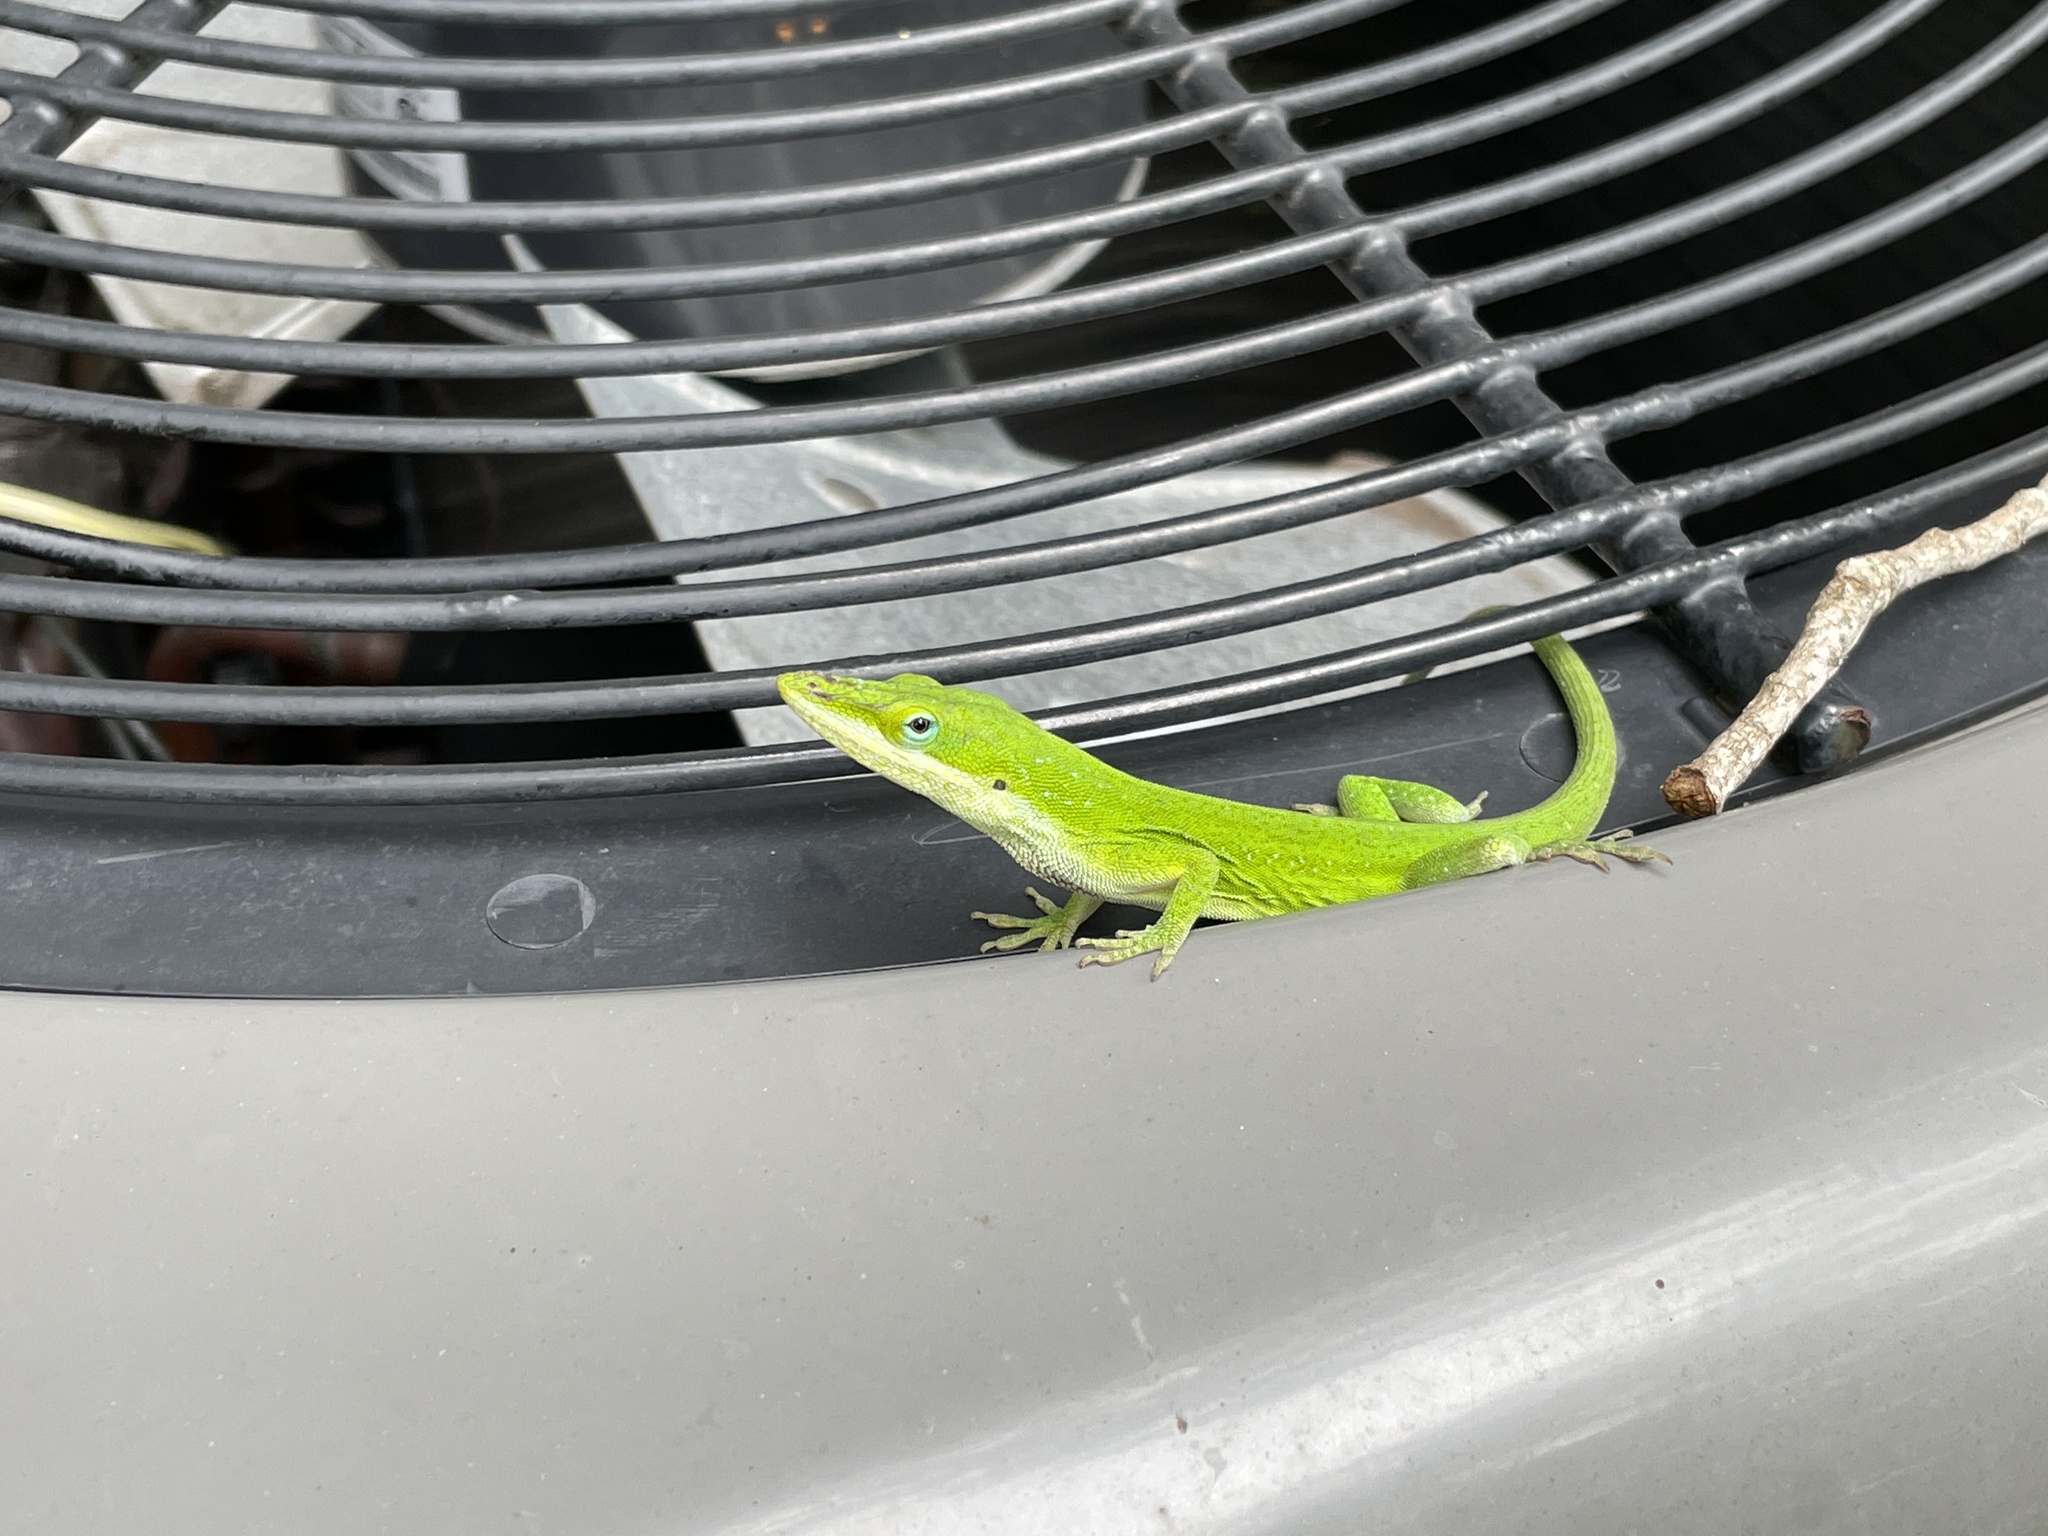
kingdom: Animalia
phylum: Chordata
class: Squamata
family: Dactyloidae
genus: Anolis
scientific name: Anolis carolinensis
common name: Green anole
